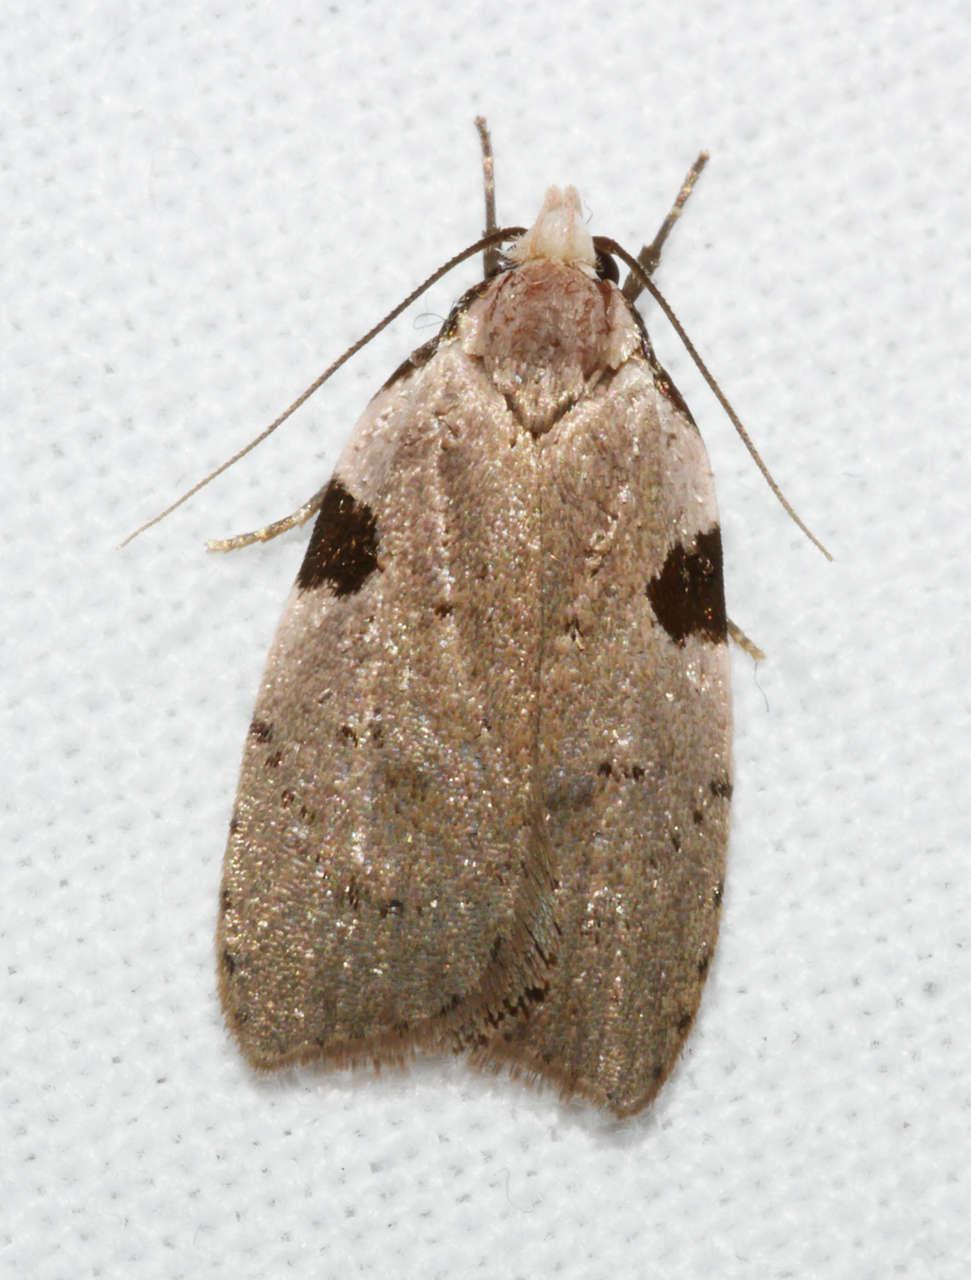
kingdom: Animalia
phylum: Arthropoda
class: Insecta
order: Lepidoptera
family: Oecophoridae
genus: Zonopetala
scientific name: Zonopetala quadripustulella
